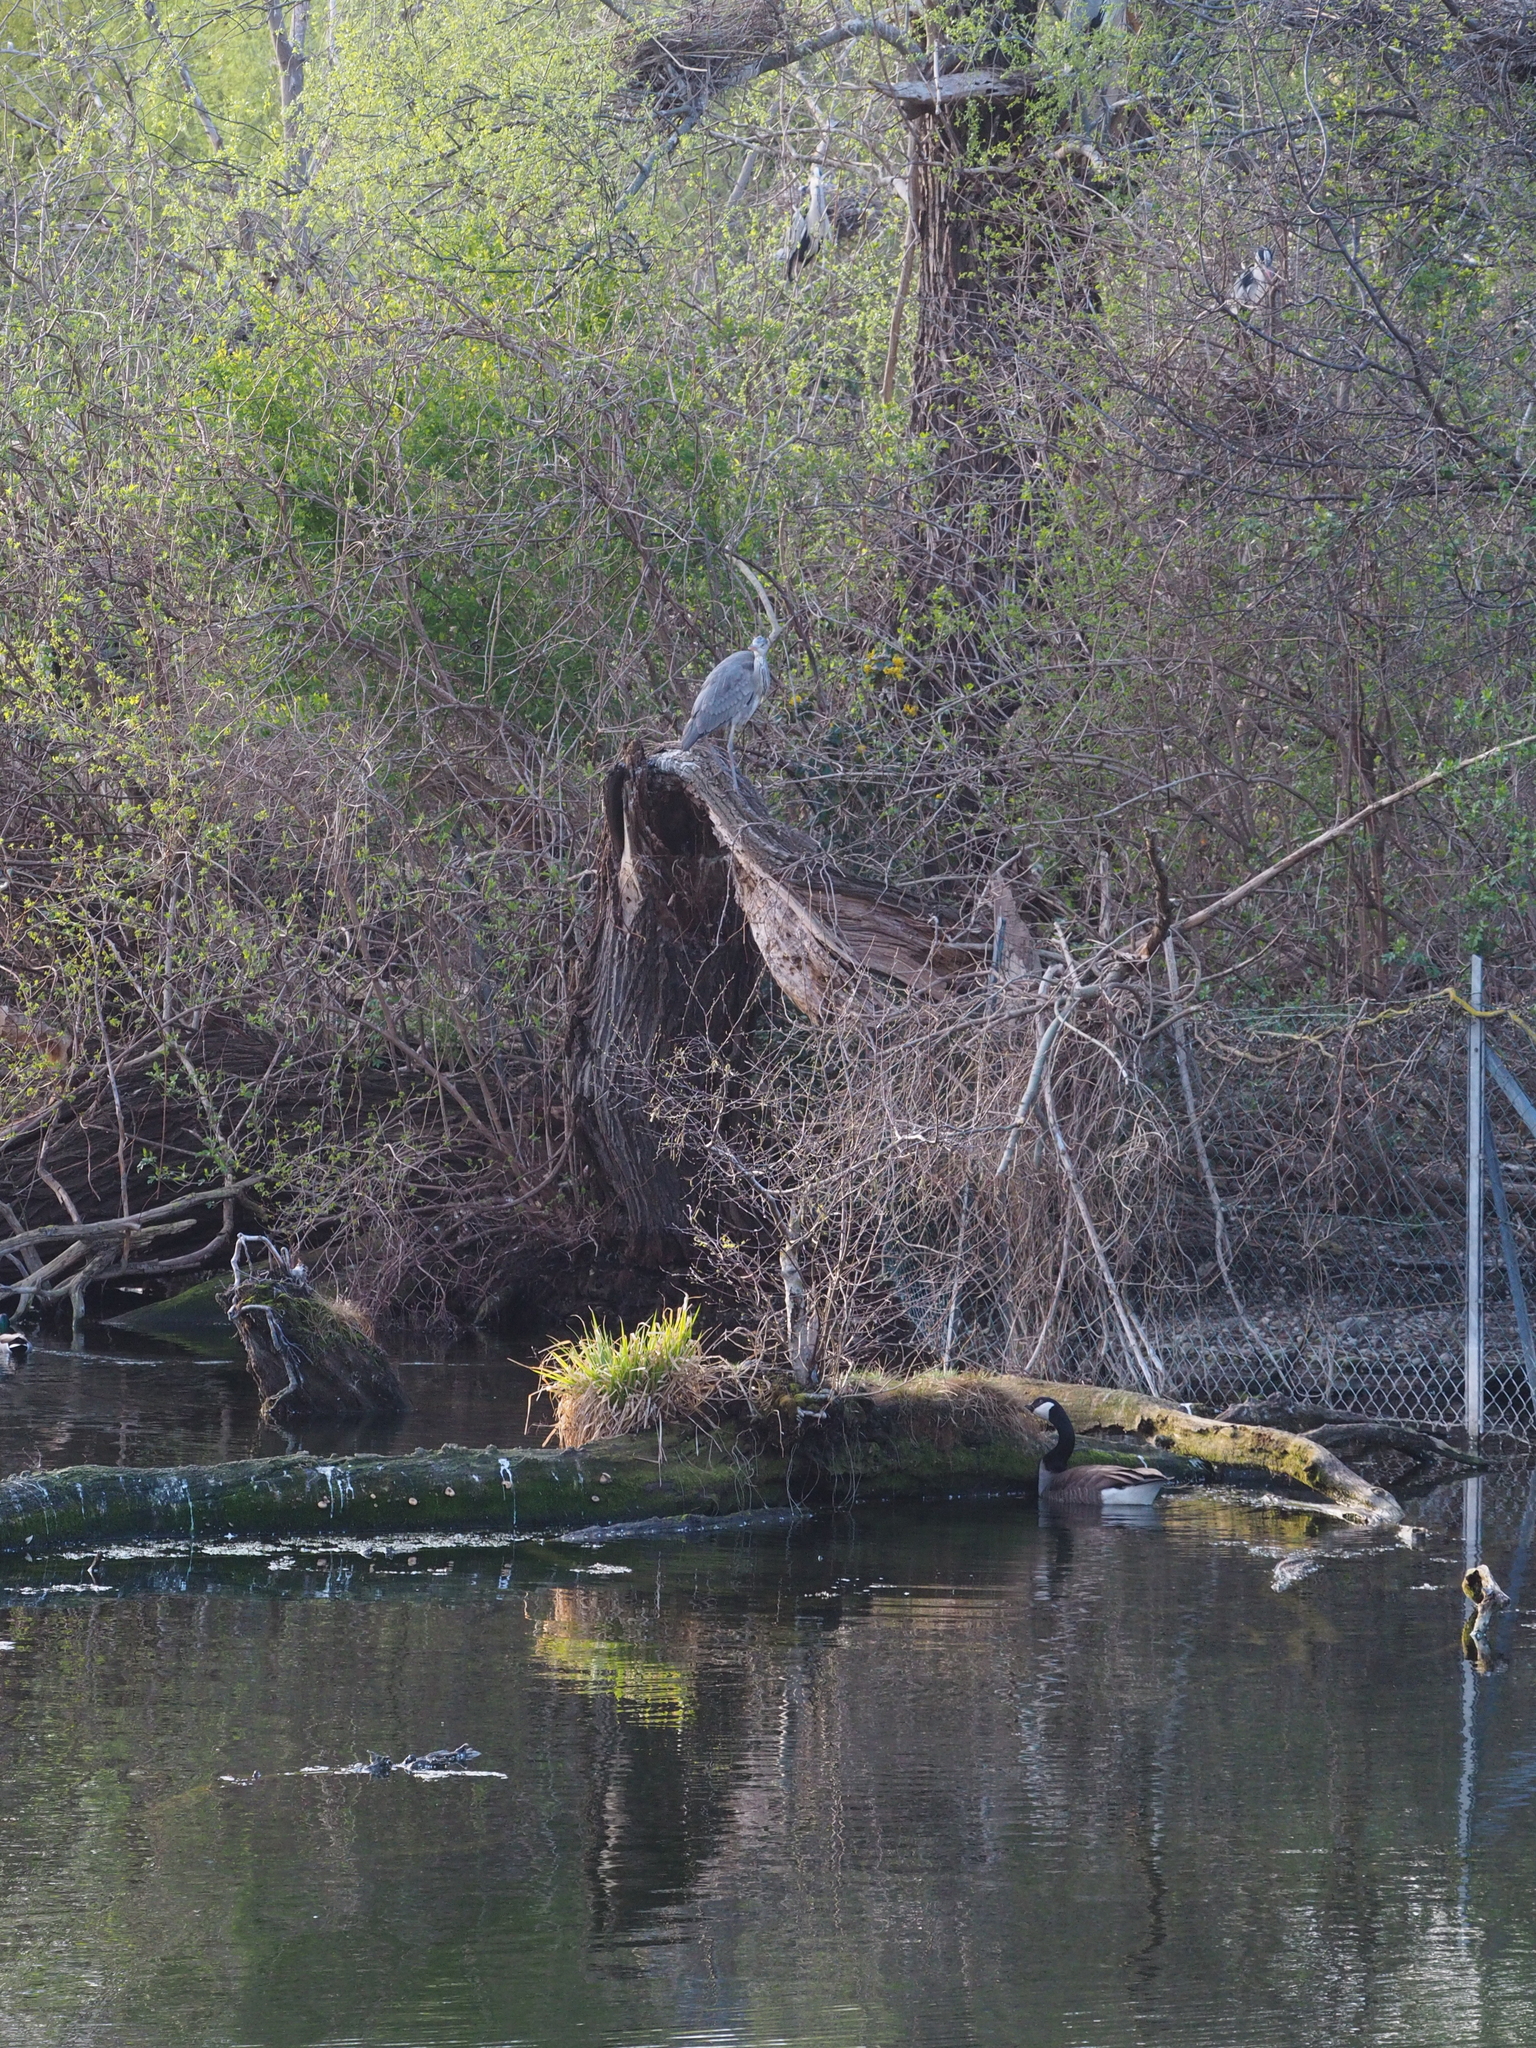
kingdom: Animalia
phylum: Chordata
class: Aves
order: Anseriformes
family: Anatidae
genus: Branta
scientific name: Branta canadensis
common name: Canada goose
